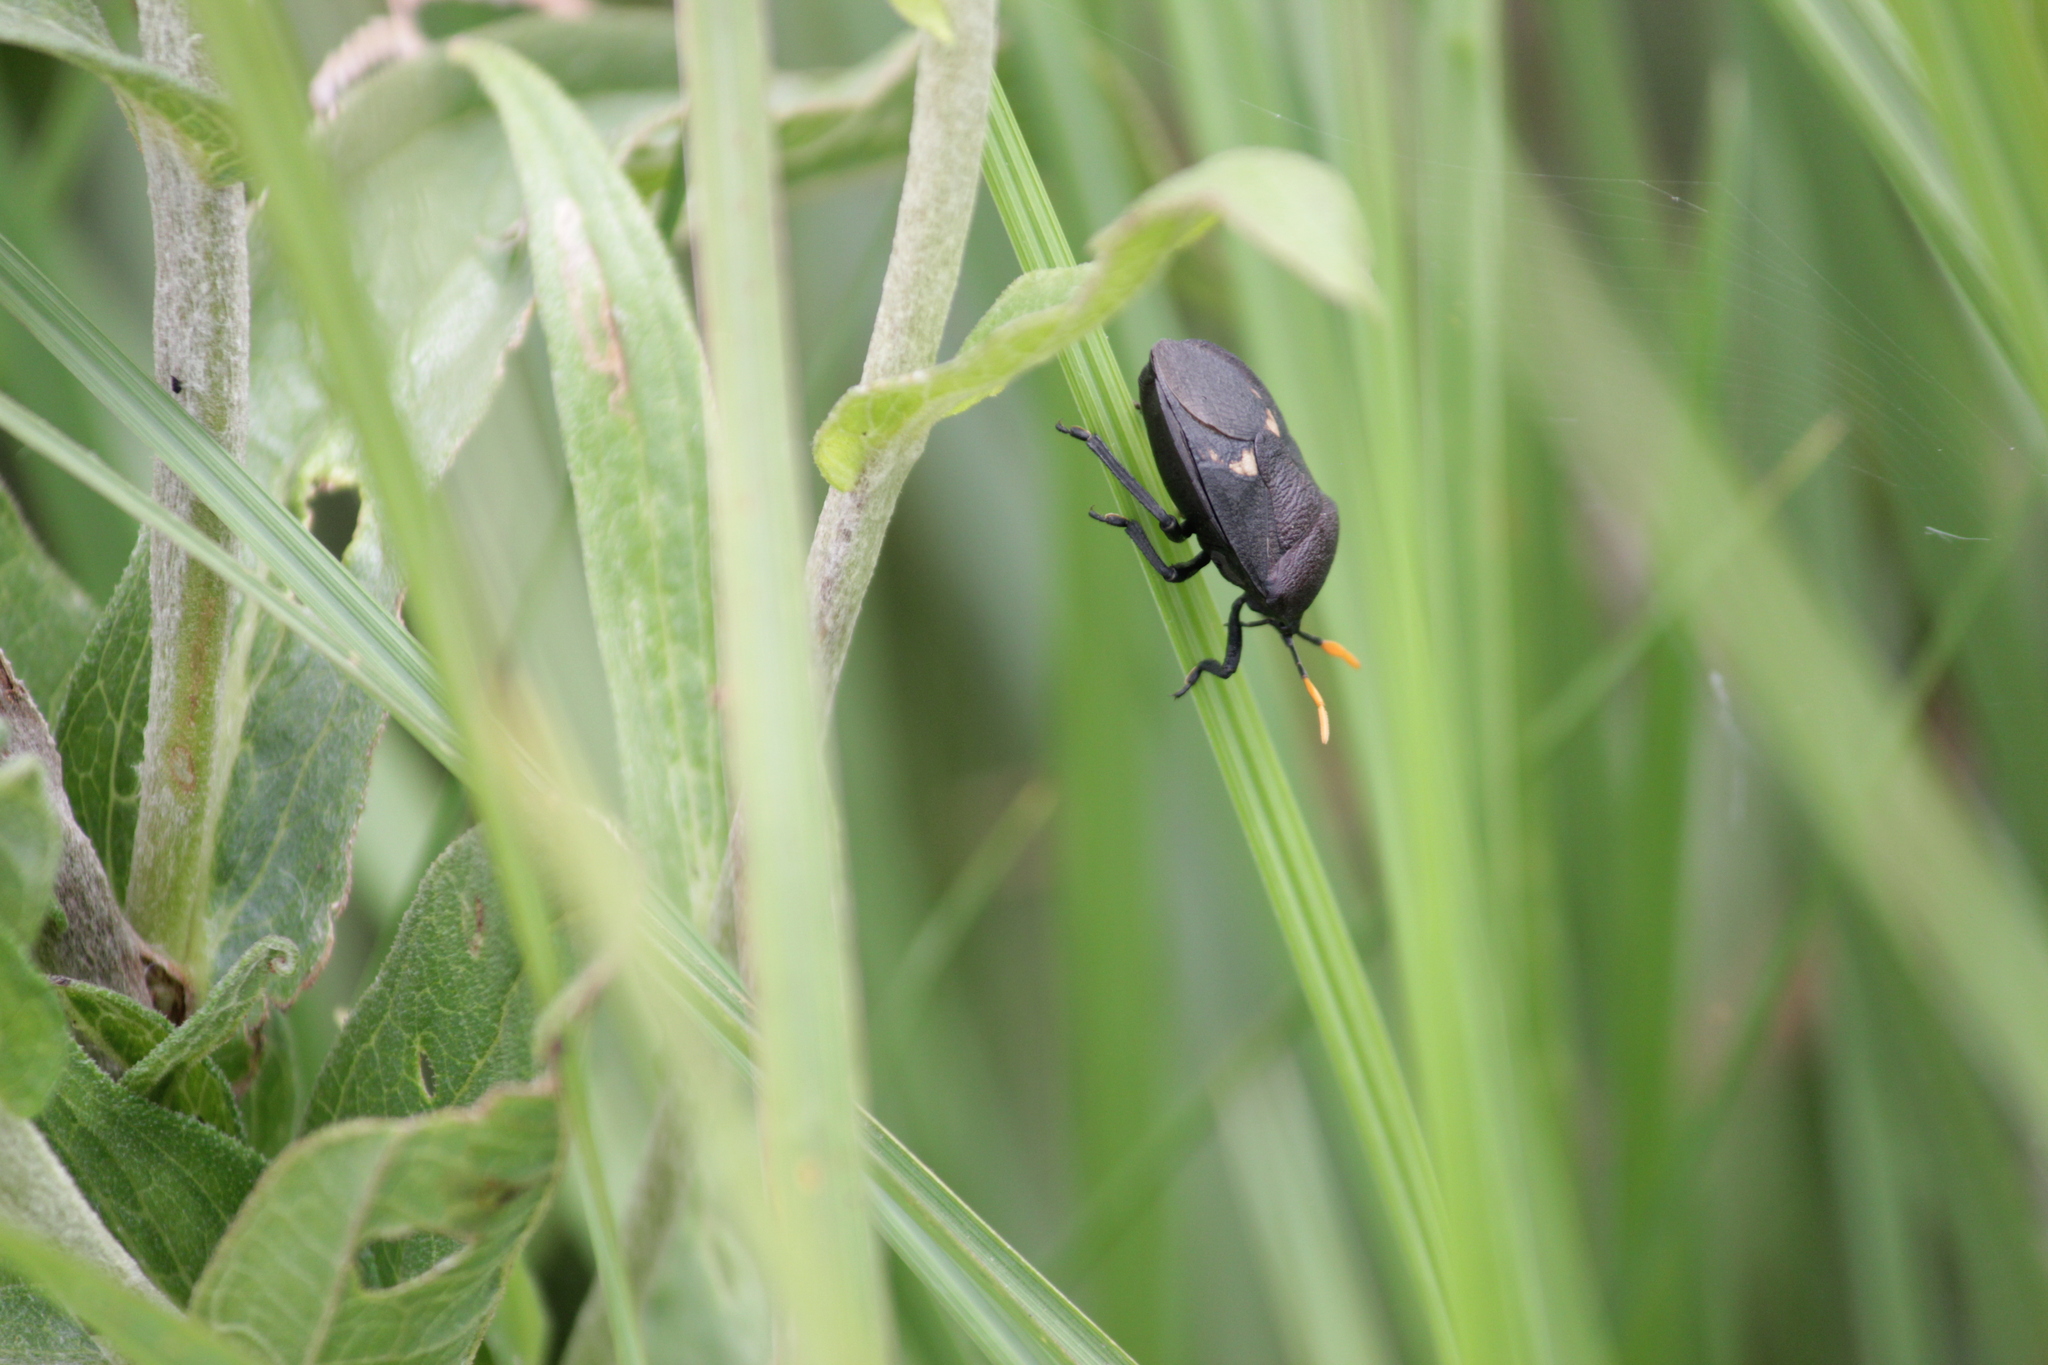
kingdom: Animalia
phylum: Arthropoda
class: Insecta
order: Hemiptera
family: Dinidoridae
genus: Coridius
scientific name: Coridius nubilus
